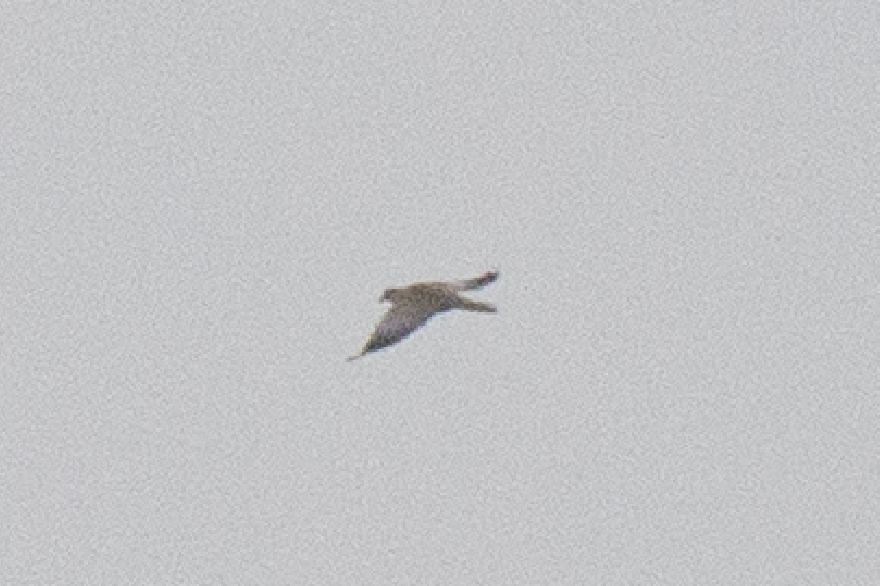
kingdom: Animalia
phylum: Chordata
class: Aves
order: Columbiformes
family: Columbidae
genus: Streptopelia
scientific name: Streptopelia decaocto
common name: Eurasian collared dove
